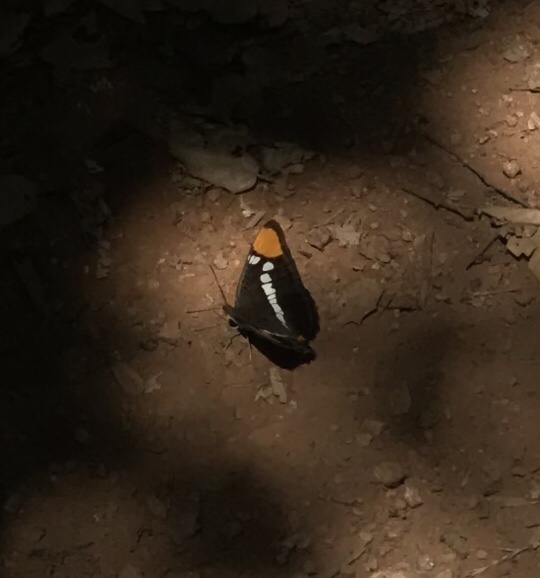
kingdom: Animalia
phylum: Arthropoda
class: Insecta
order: Lepidoptera
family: Nymphalidae
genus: Limenitis
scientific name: Limenitis bredowii
